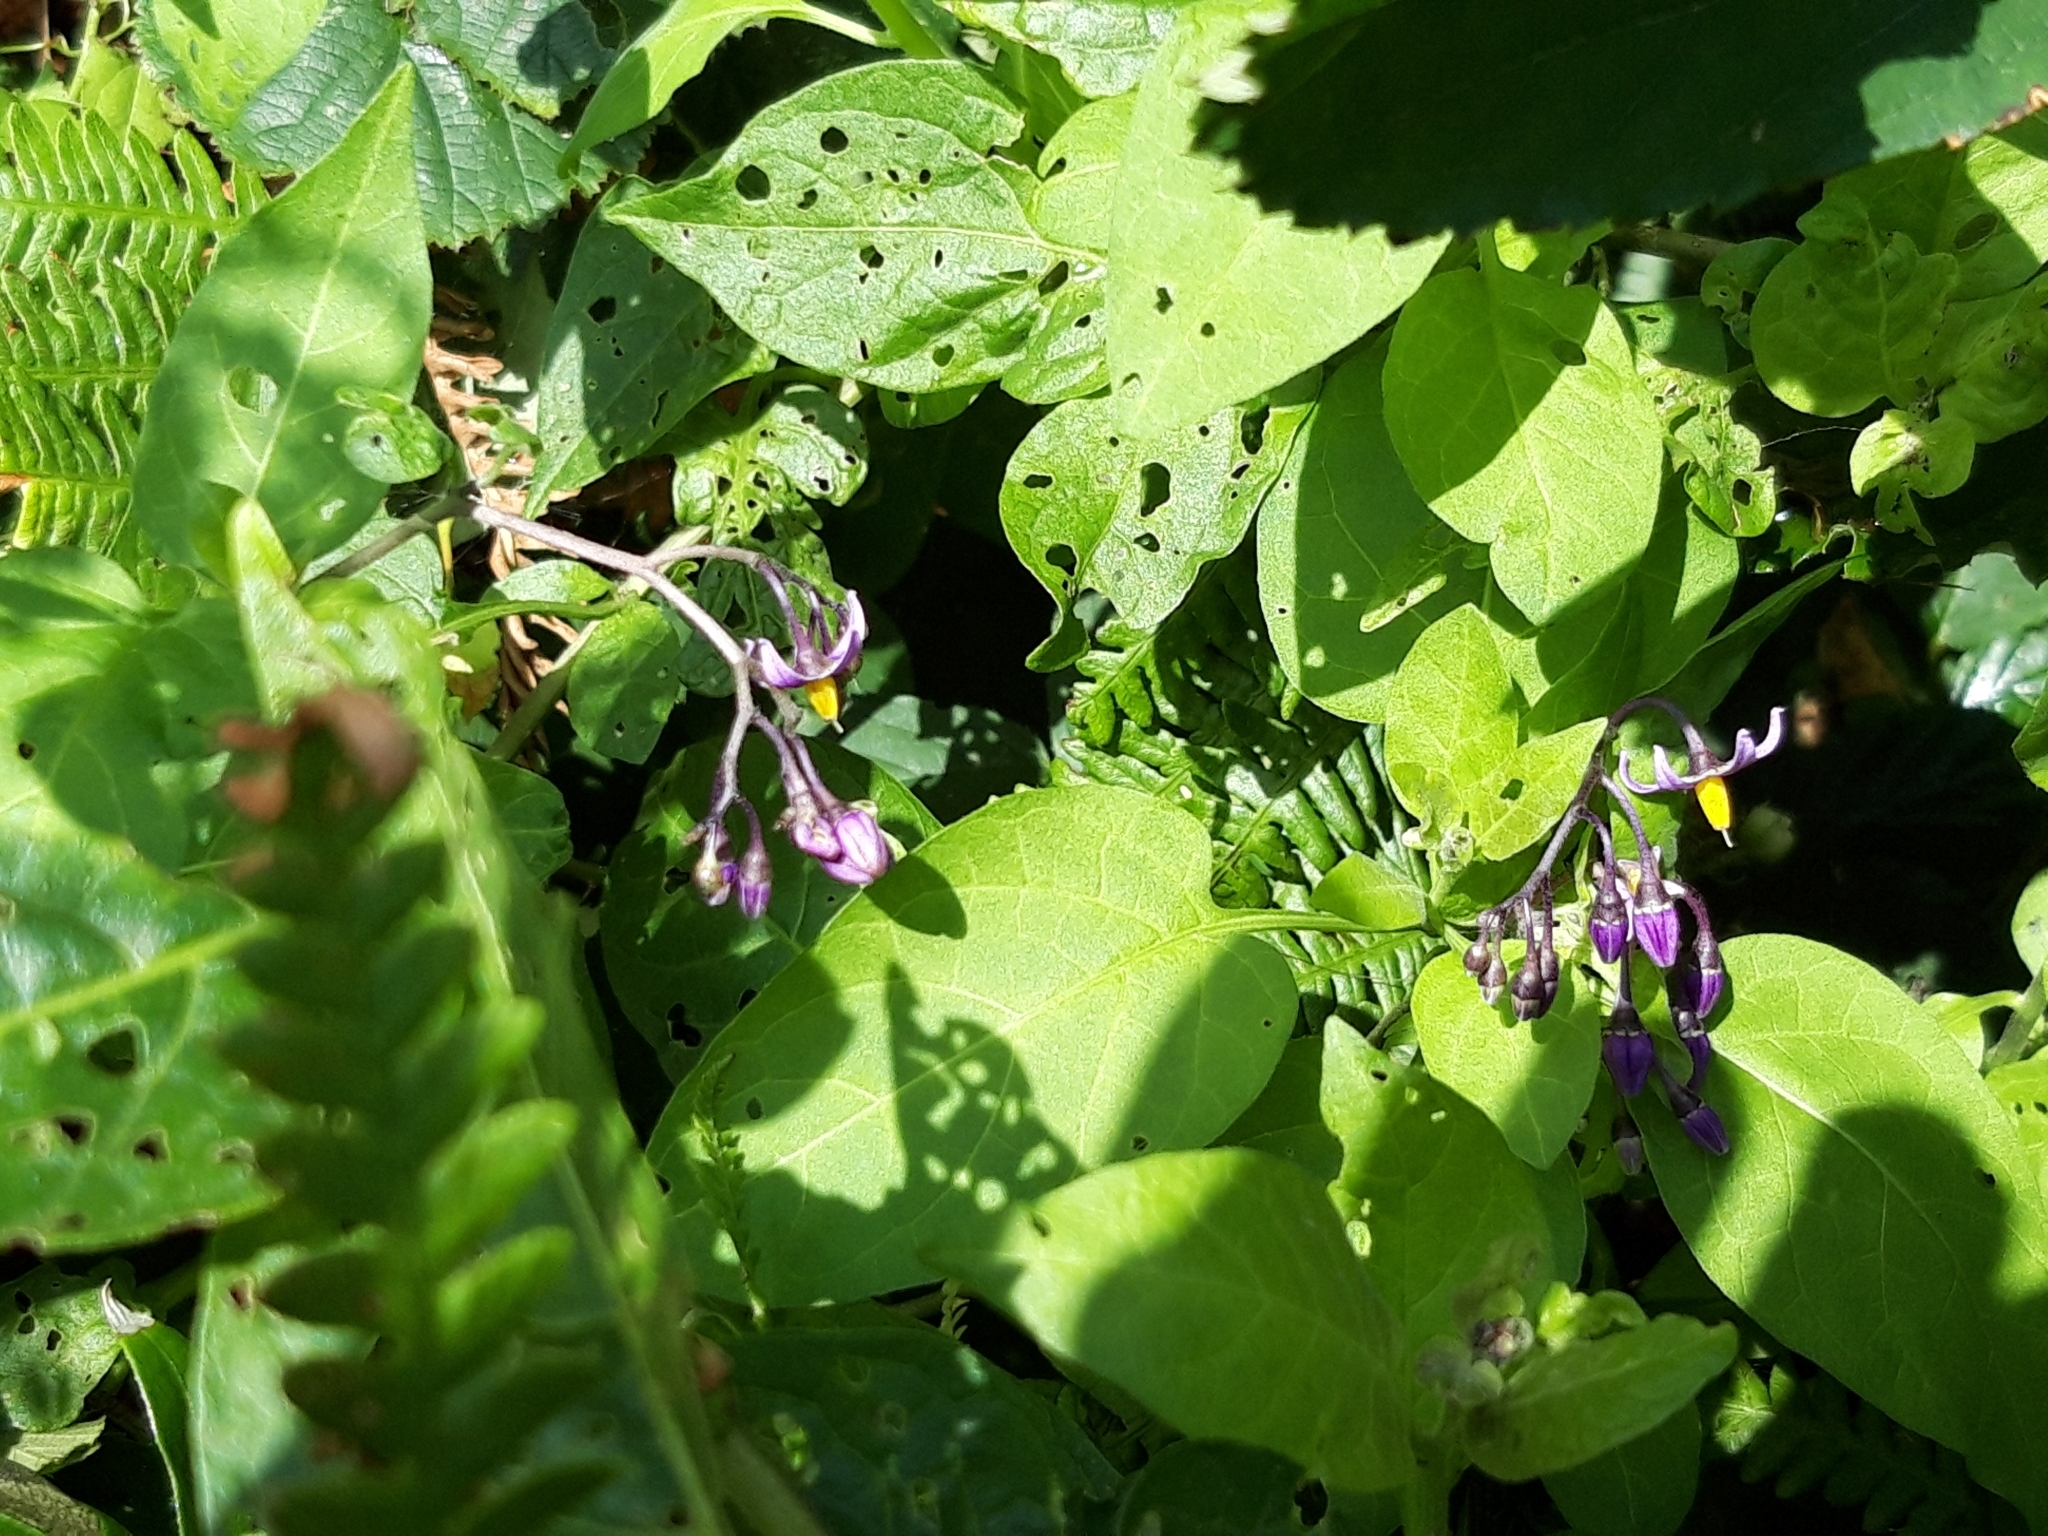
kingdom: Plantae
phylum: Tracheophyta
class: Magnoliopsida
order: Solanales
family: Solanaceae
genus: Solanum
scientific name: Solanum dulcamara
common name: Climbing nightshade
